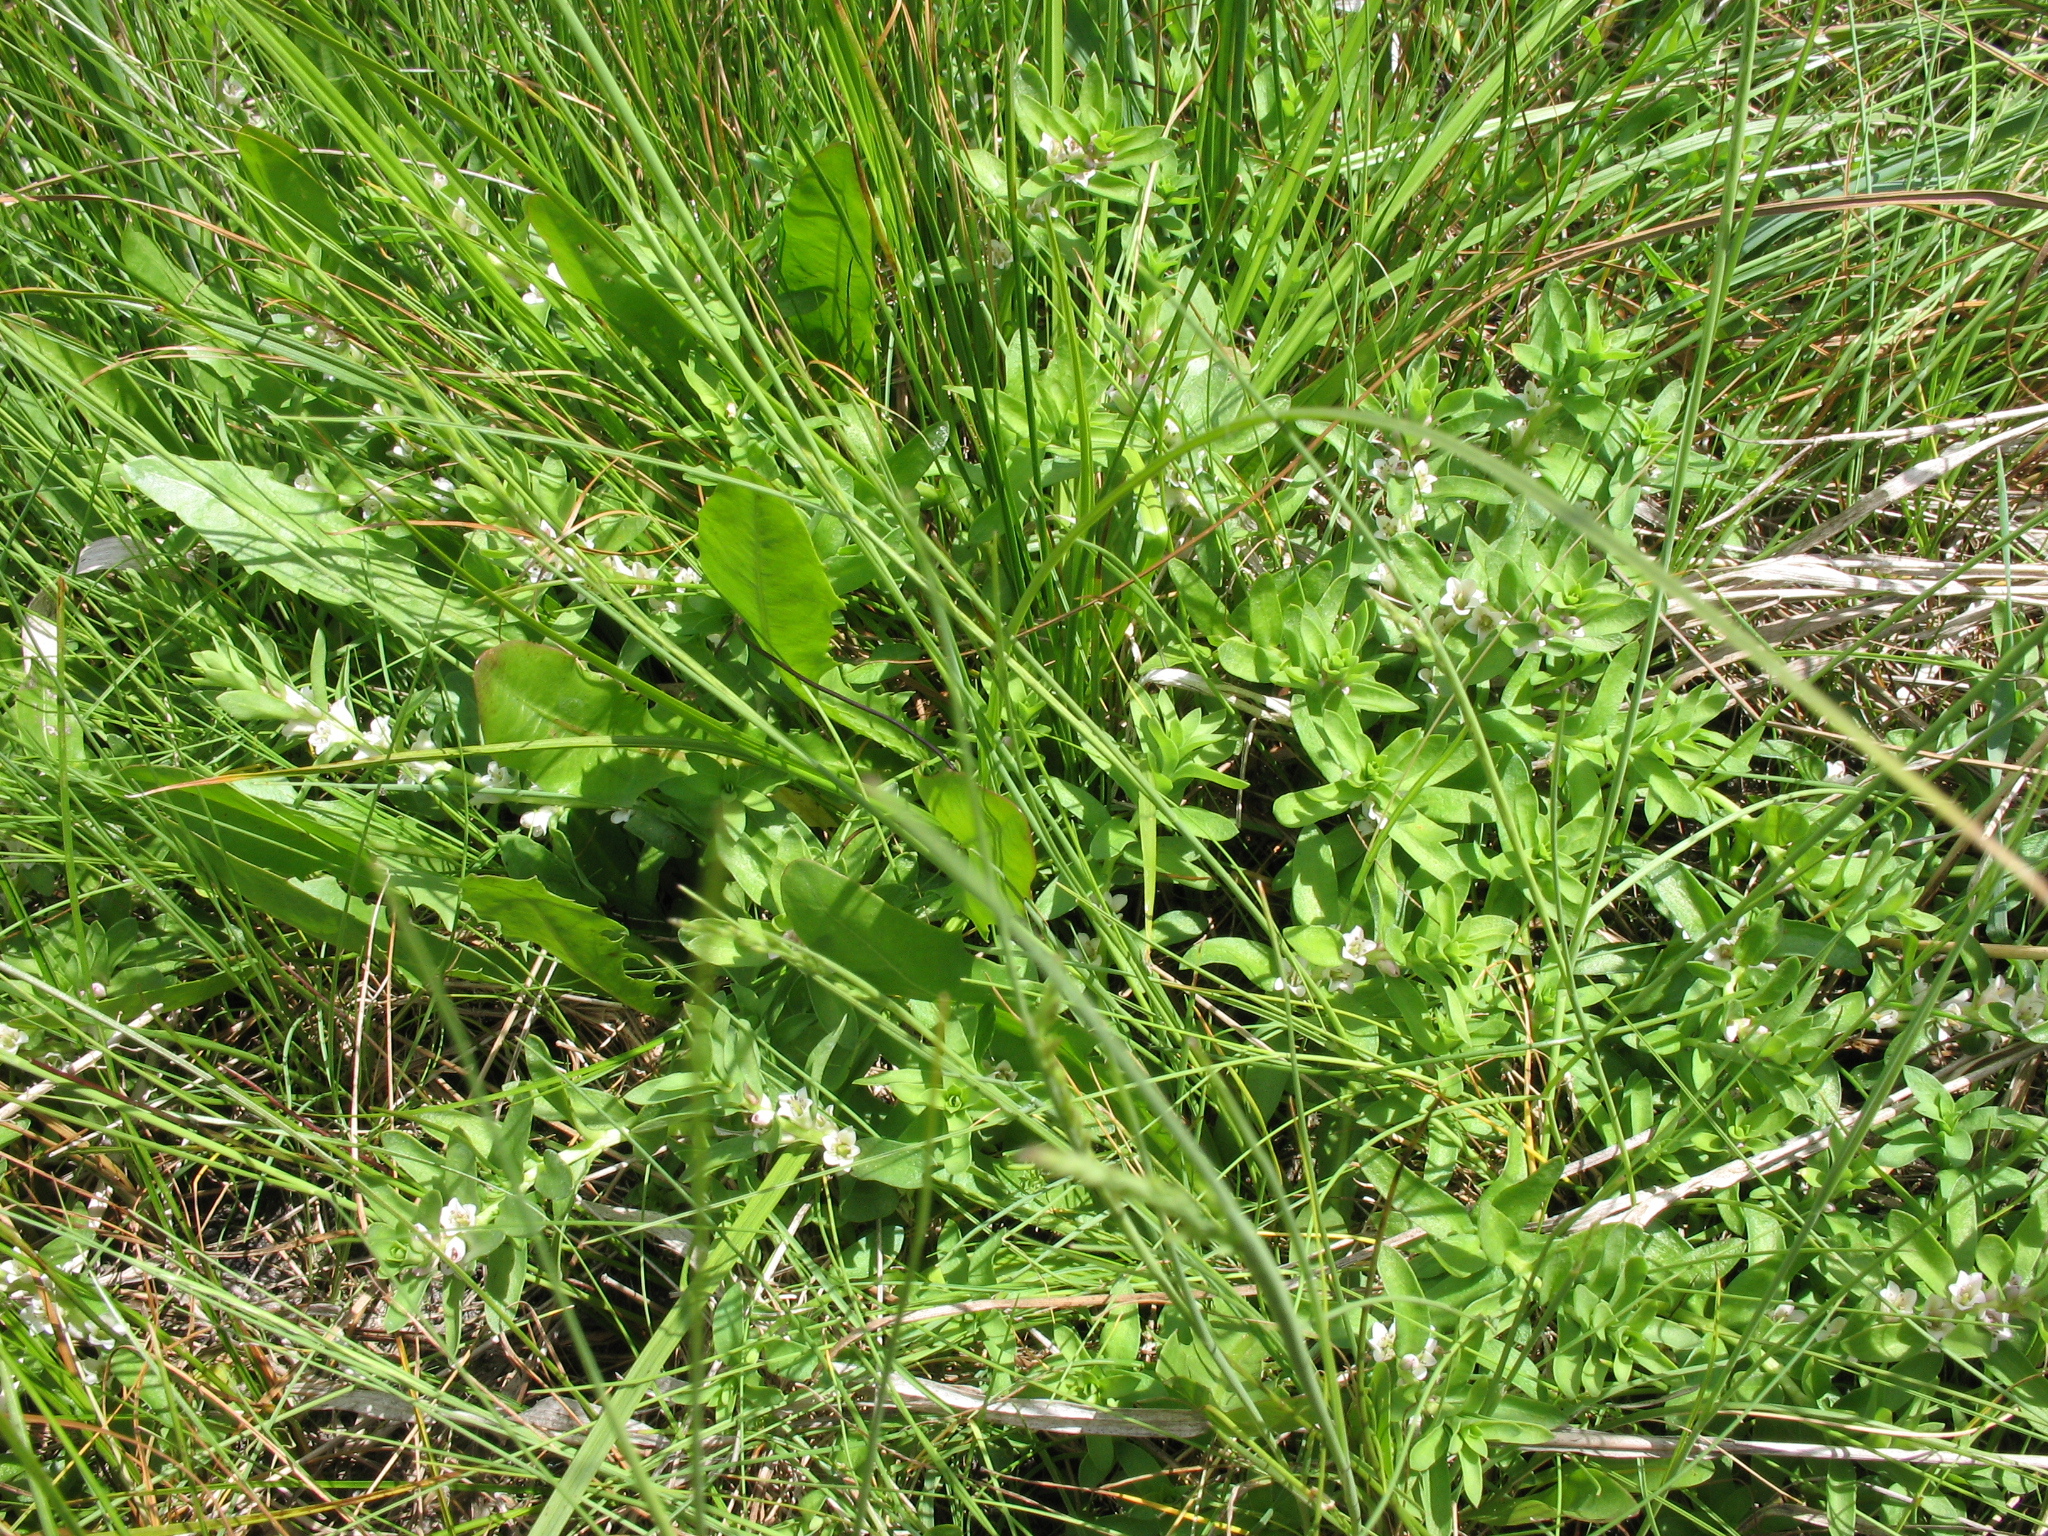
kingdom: Plantae
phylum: Tracheophyta
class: Magnoliopsida
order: Ericales
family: Primulaceae
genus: Lysimachia
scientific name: Lysimachia maritima
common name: Sea milkwort
